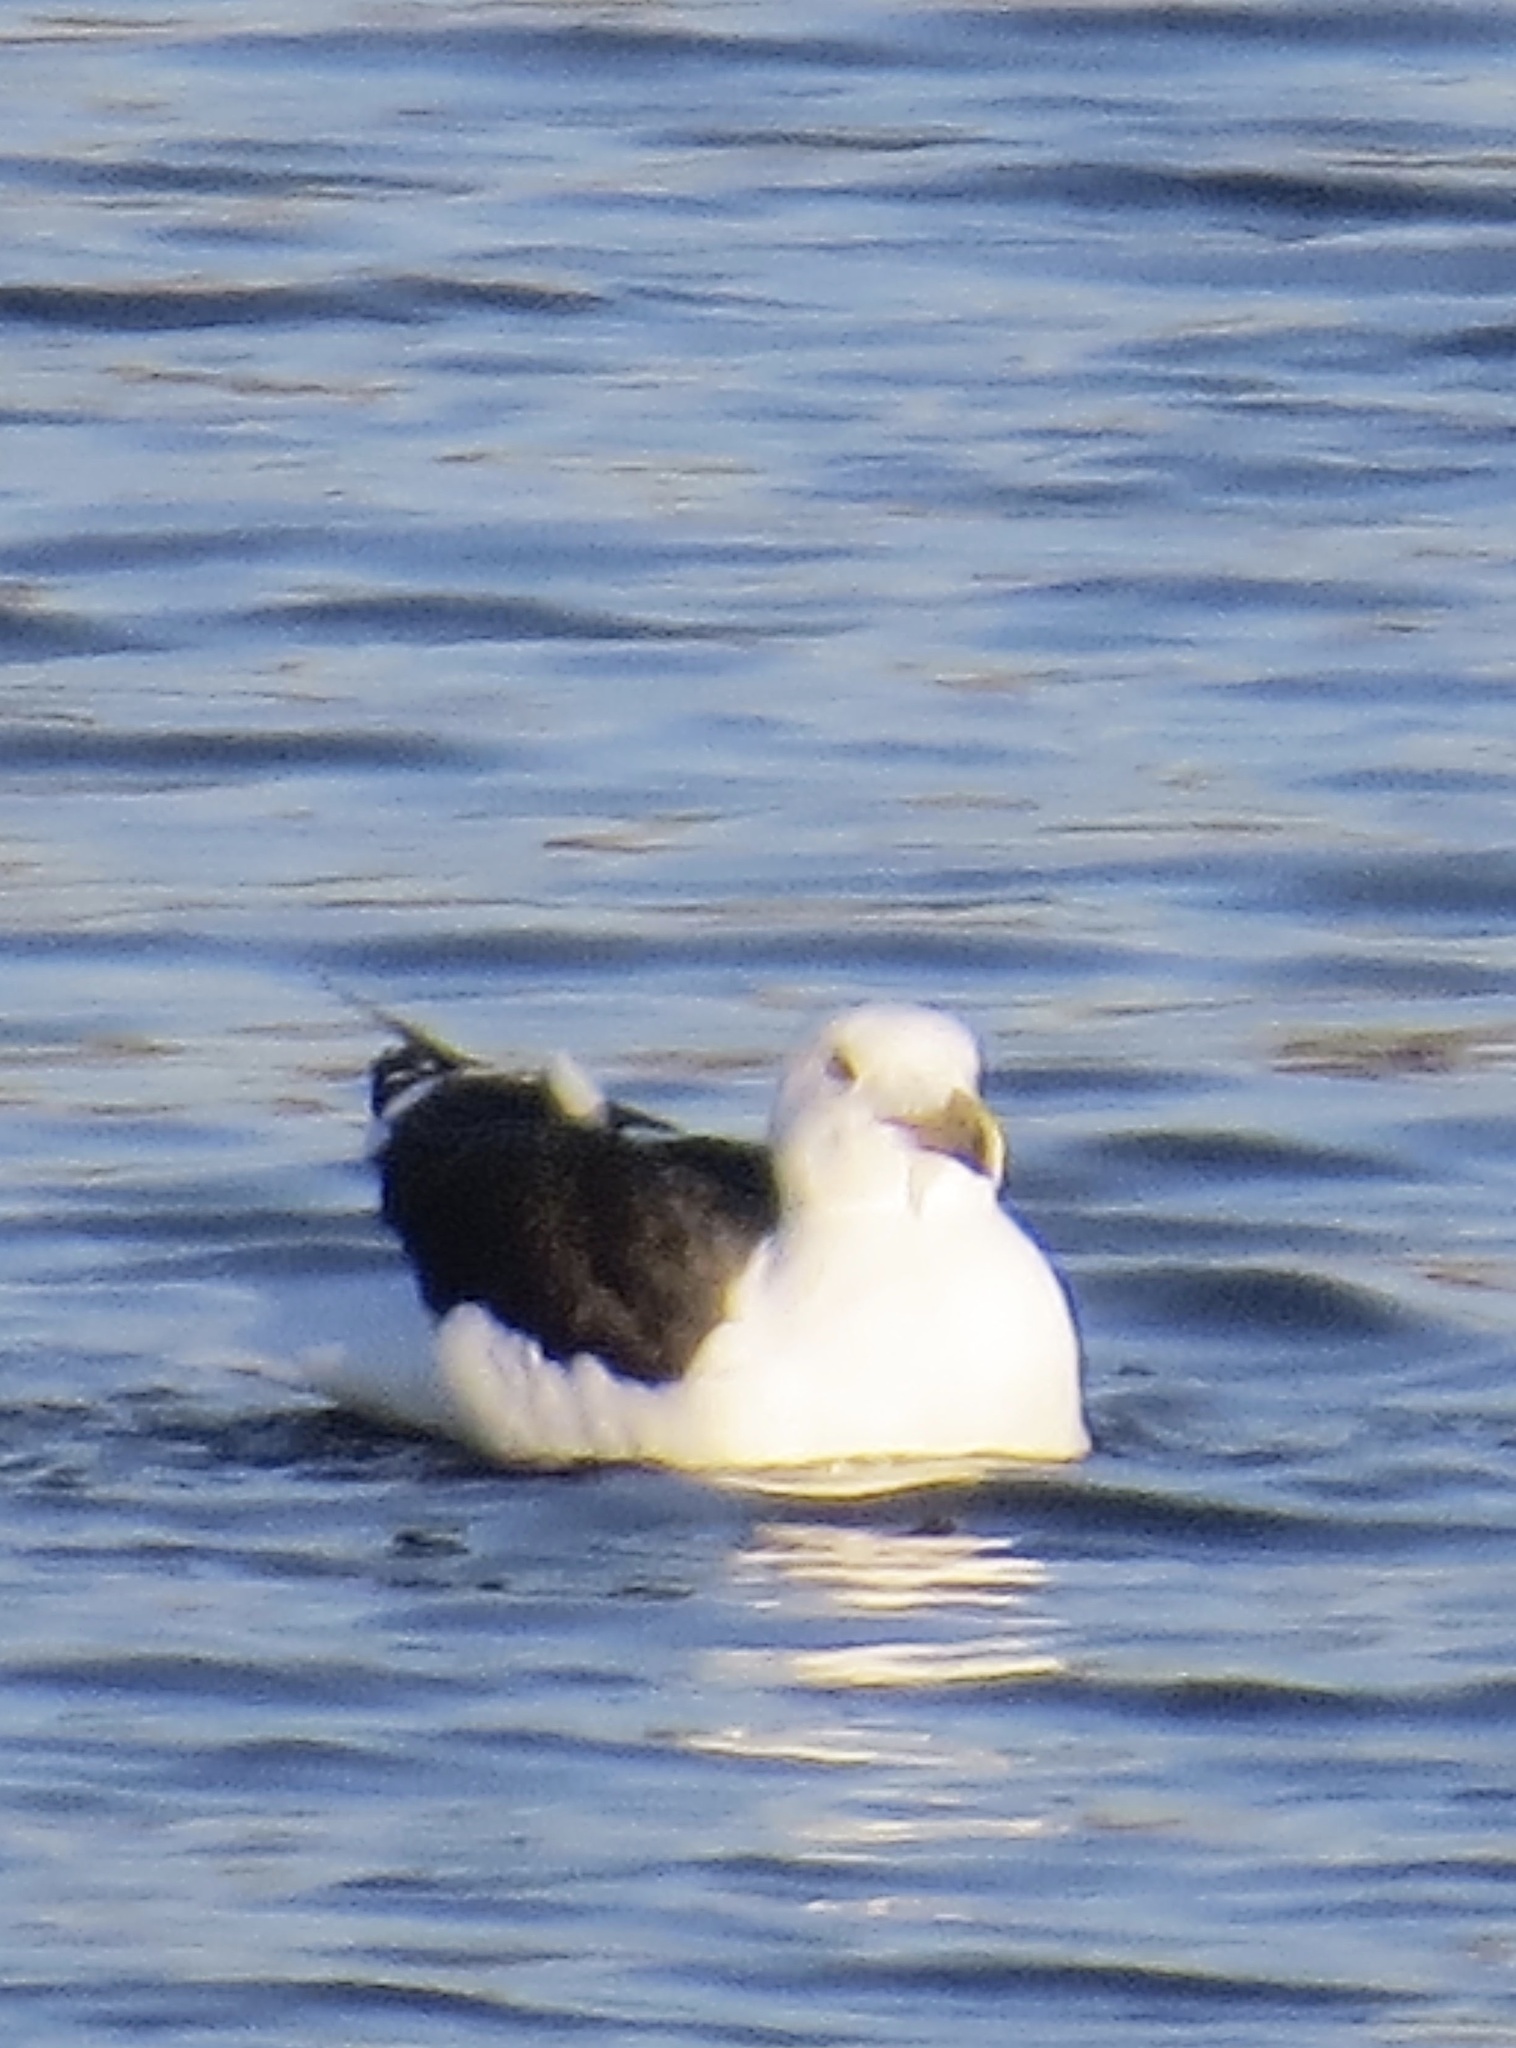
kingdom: Animalia
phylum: Chordata
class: Aves
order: Charadriiformes
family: Laridae
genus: Larus
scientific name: Larus marinus
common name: Great black-backed gull
